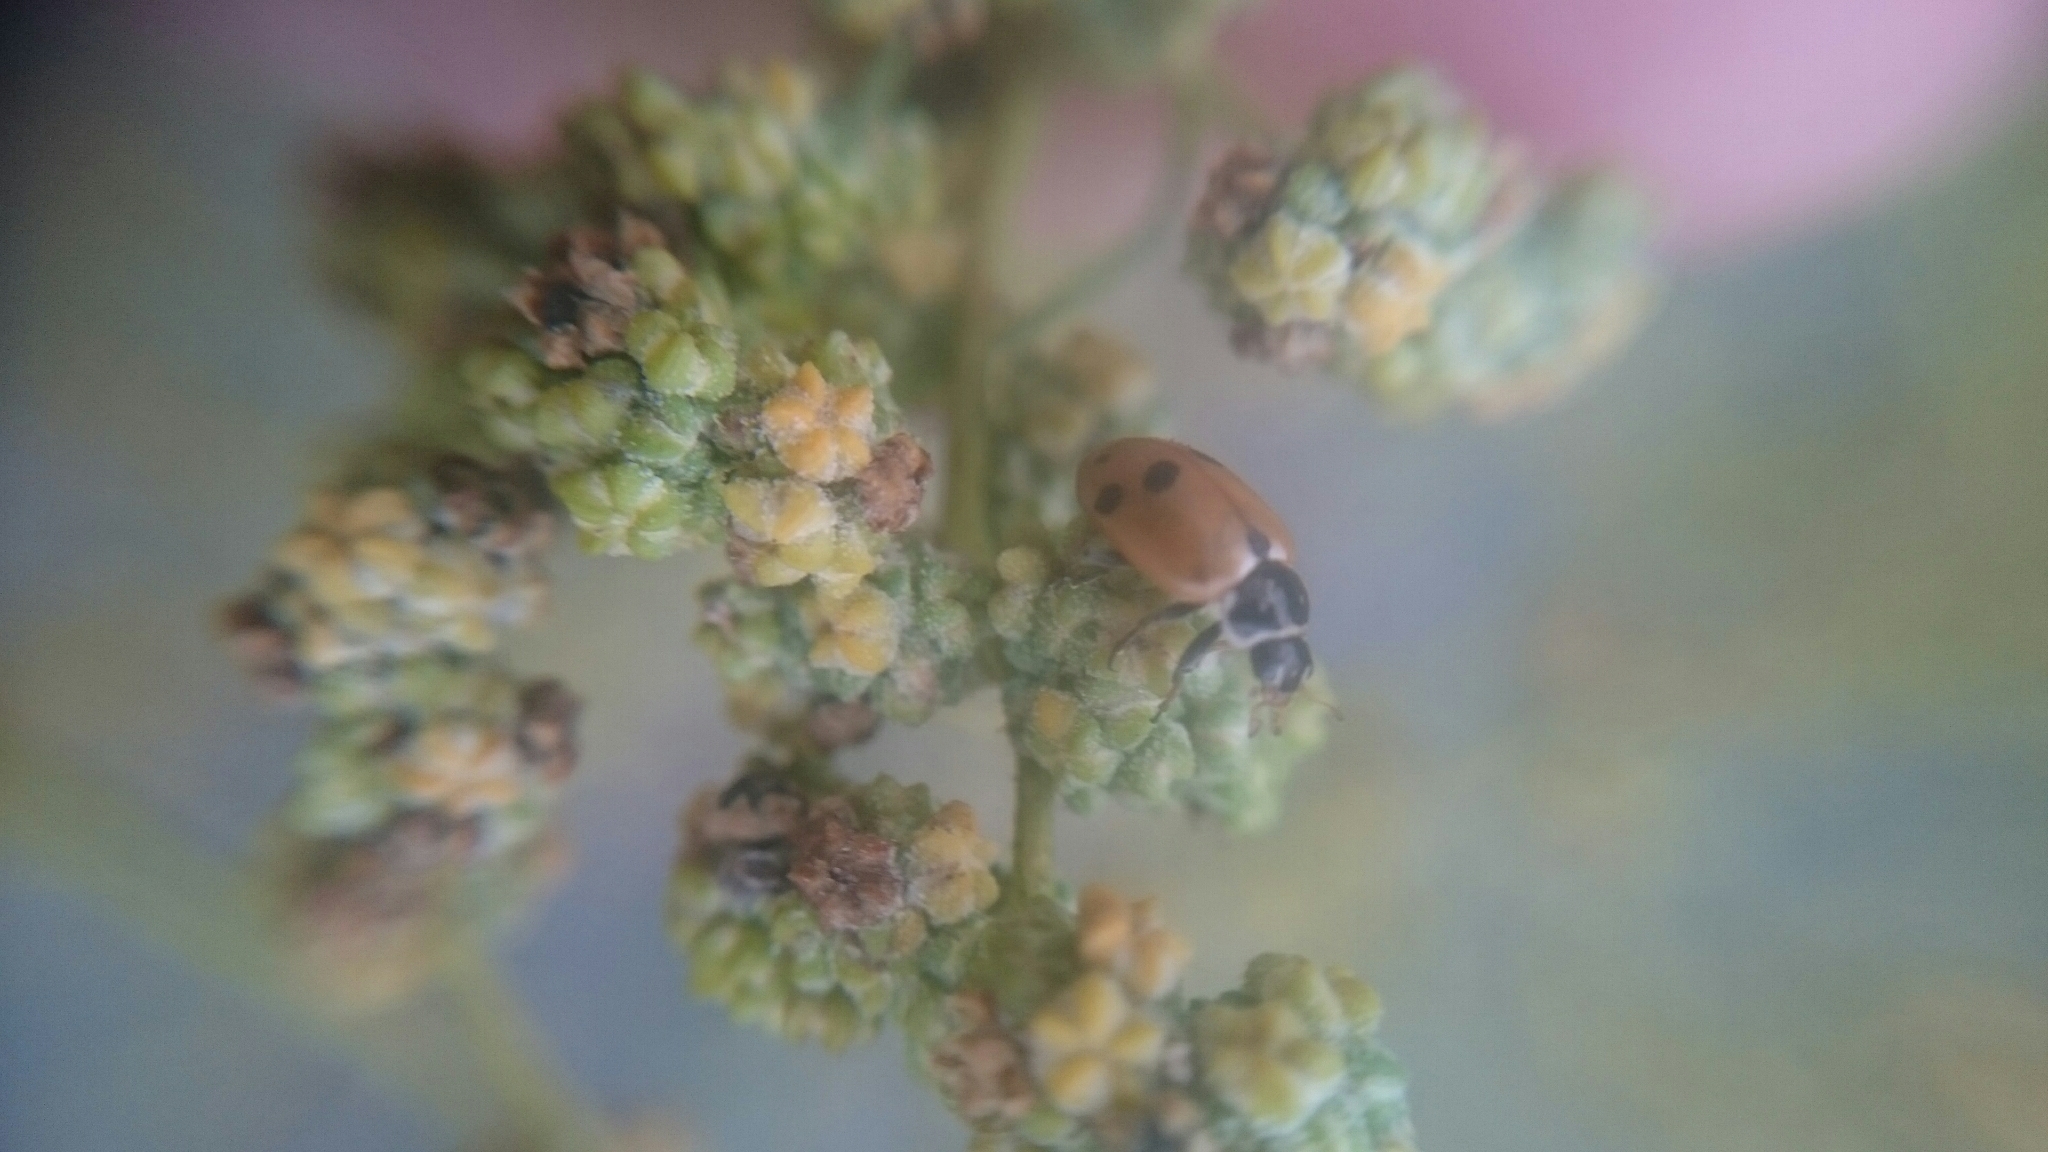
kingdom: Animalia
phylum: Arthropoda
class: Insecta
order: Coleoptera
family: Coccinellidae
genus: Hippodamia
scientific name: Hippodamia variegata
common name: Ladybird beetle
